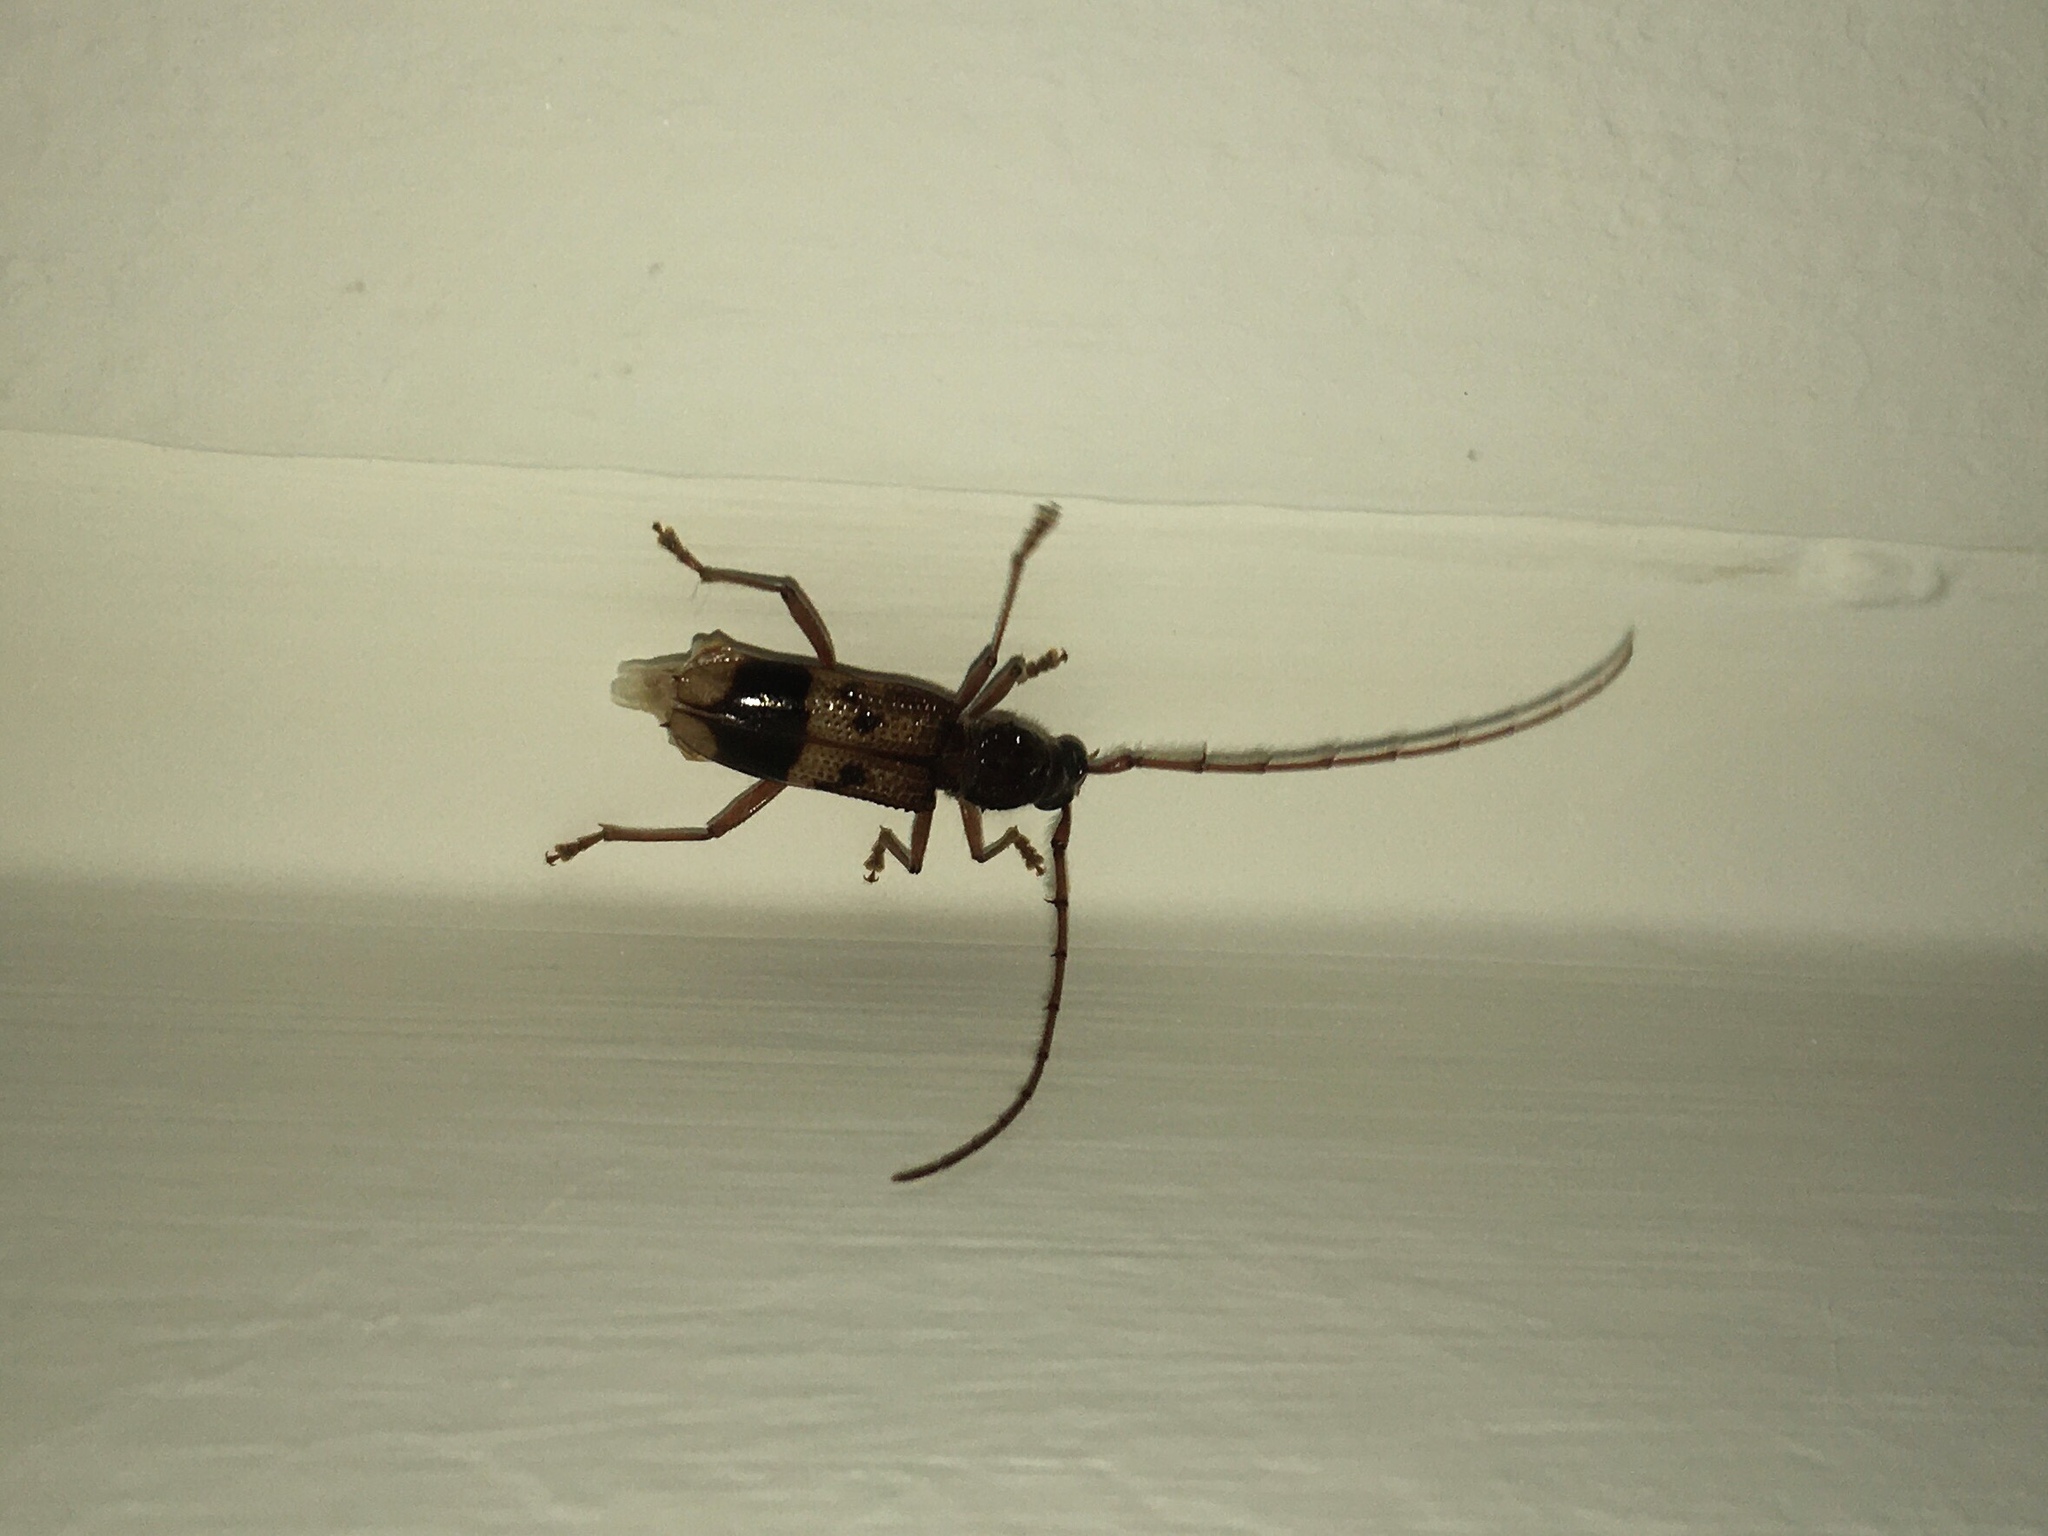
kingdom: Animalia
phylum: Arthropoda
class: Insecta
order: Coleoptera
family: Cerambycidae
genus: Phoracantha
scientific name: Phoracantha recurva
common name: Eucalyptus longhorned borer
